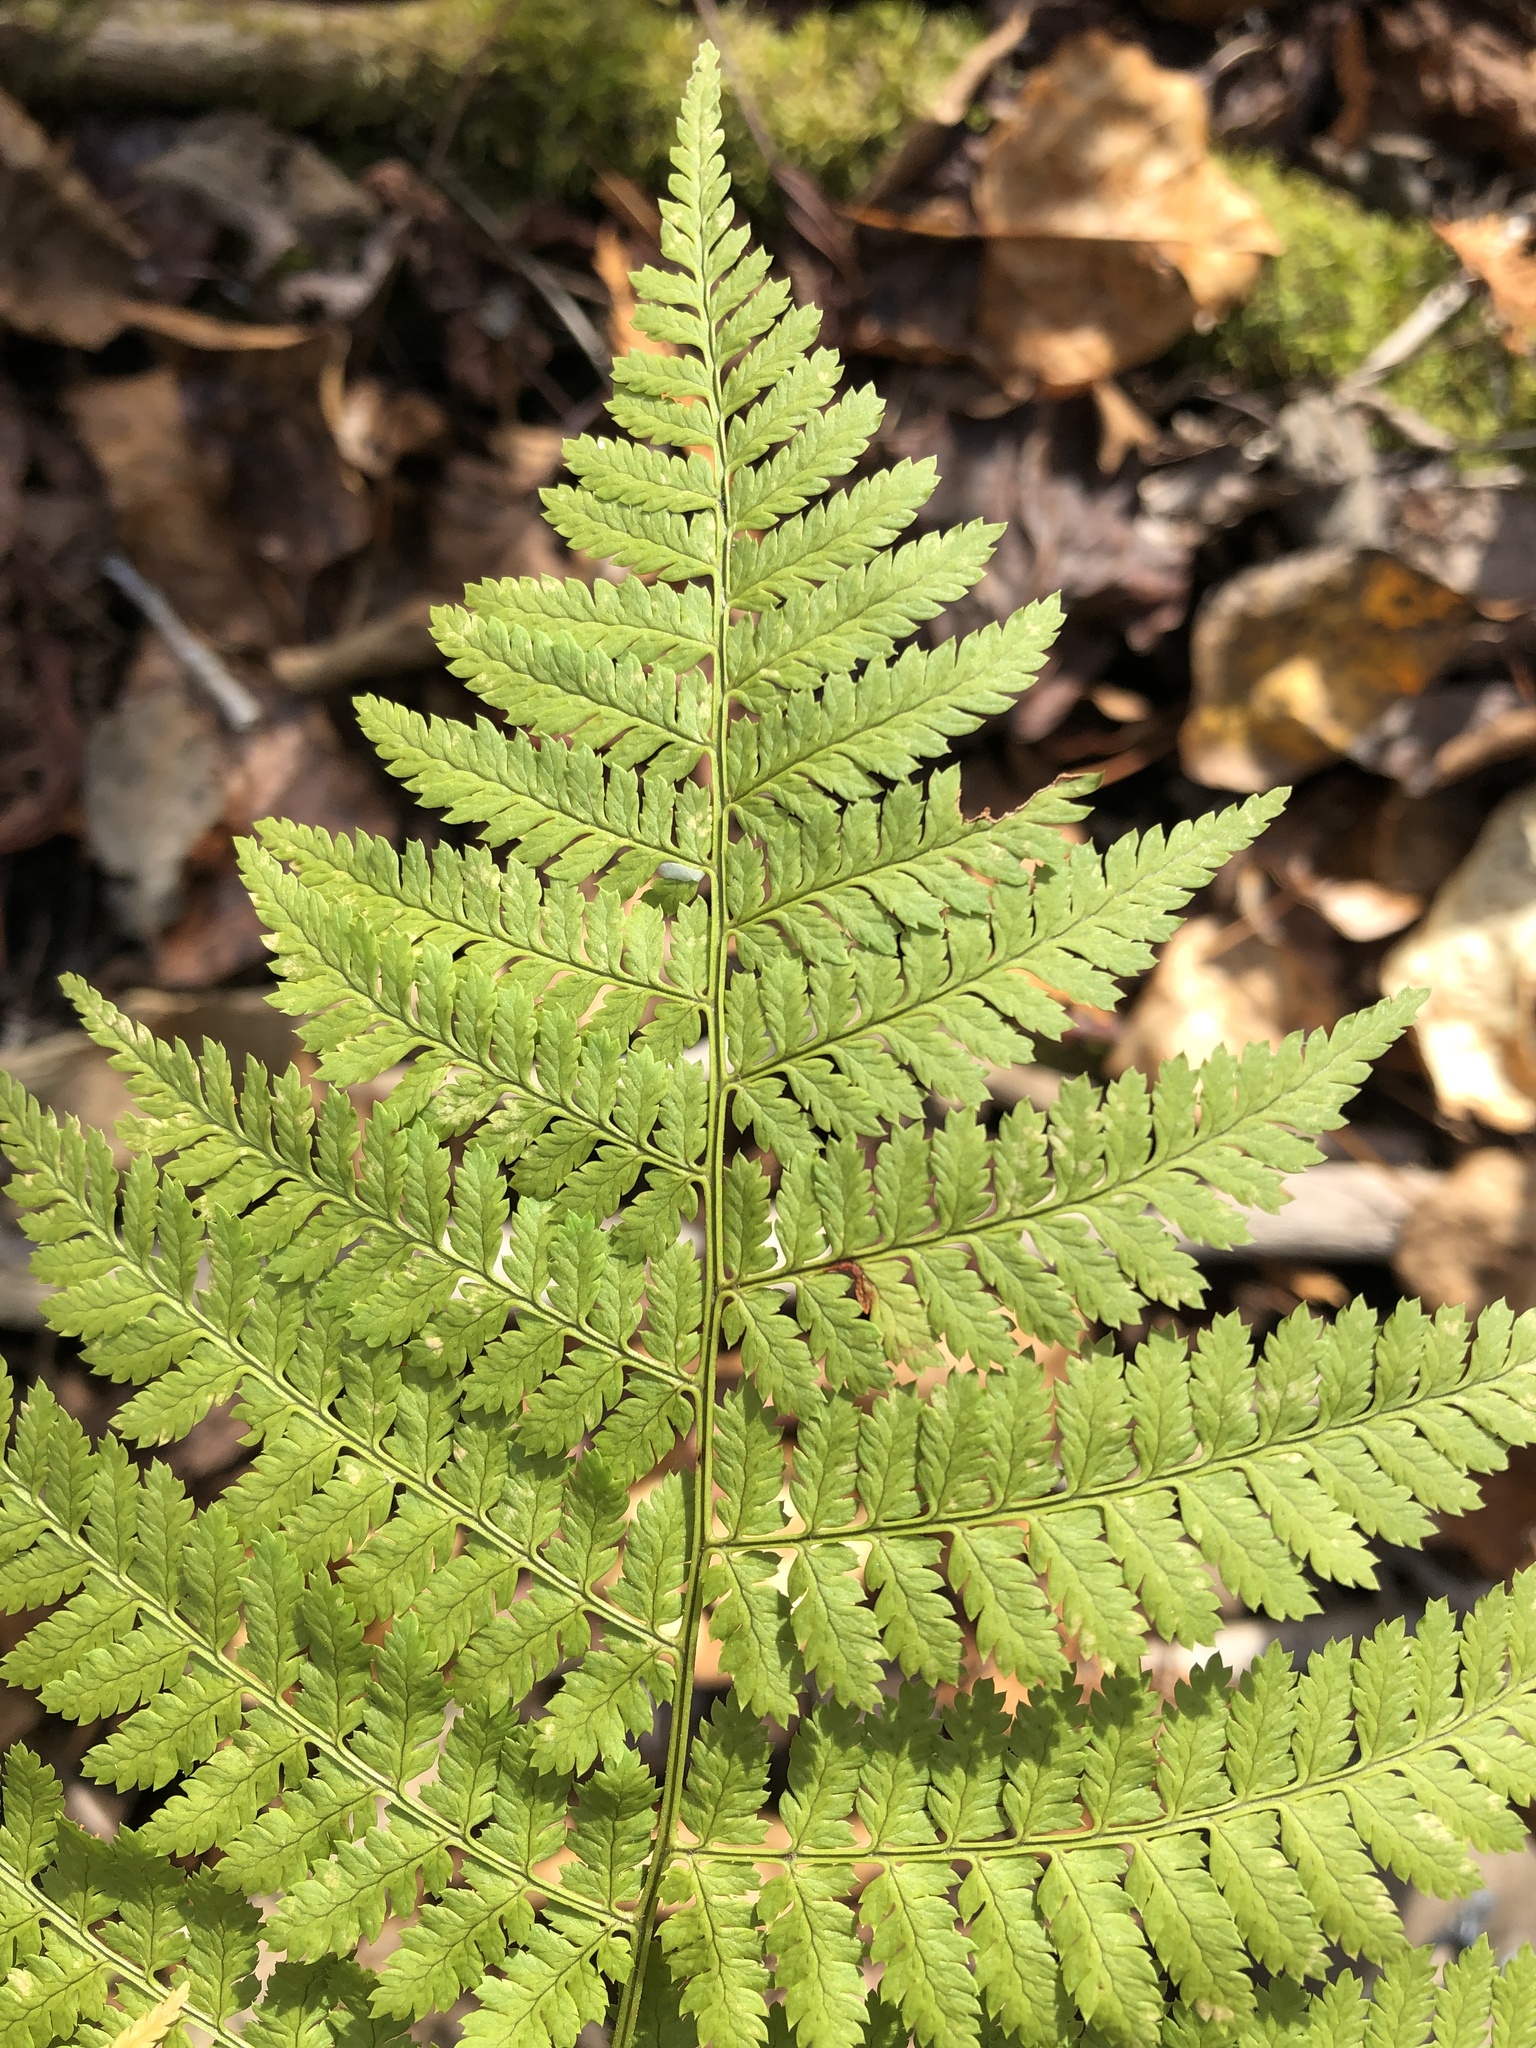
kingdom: Plantae
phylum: Tracheophyta
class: Polypodiopsida
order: Polypodiales
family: Dryopteridaceae
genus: Dryopteris
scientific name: Dryopteris intermedia
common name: Evergreen wood fern
